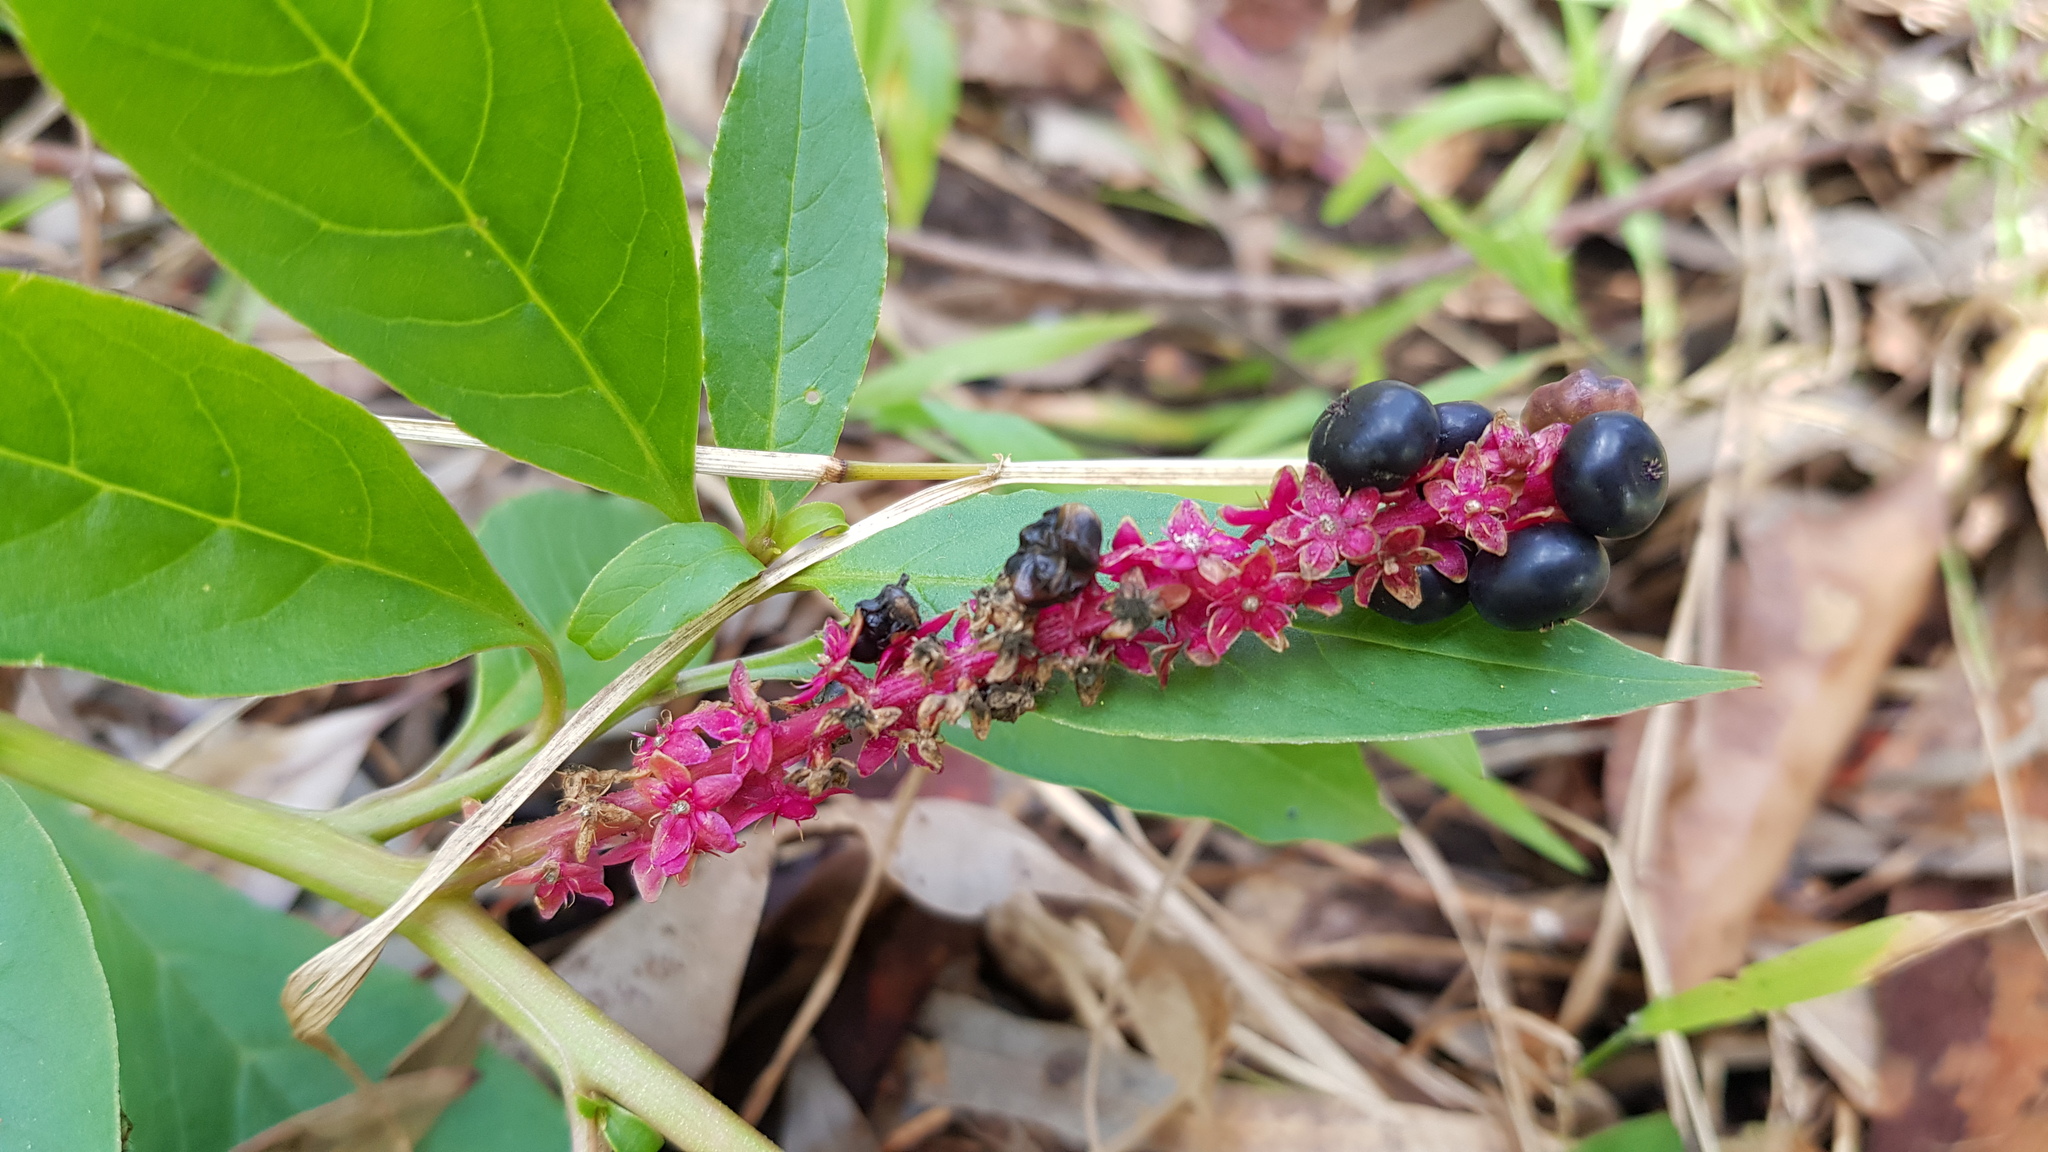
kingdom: Plantae
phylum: Tracheophyta
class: Magnoliopsida
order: Caryophyllales
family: Phytolaccaceae
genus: Phytolacca
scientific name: Phytolacca icosandra
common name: Button pokeweed
